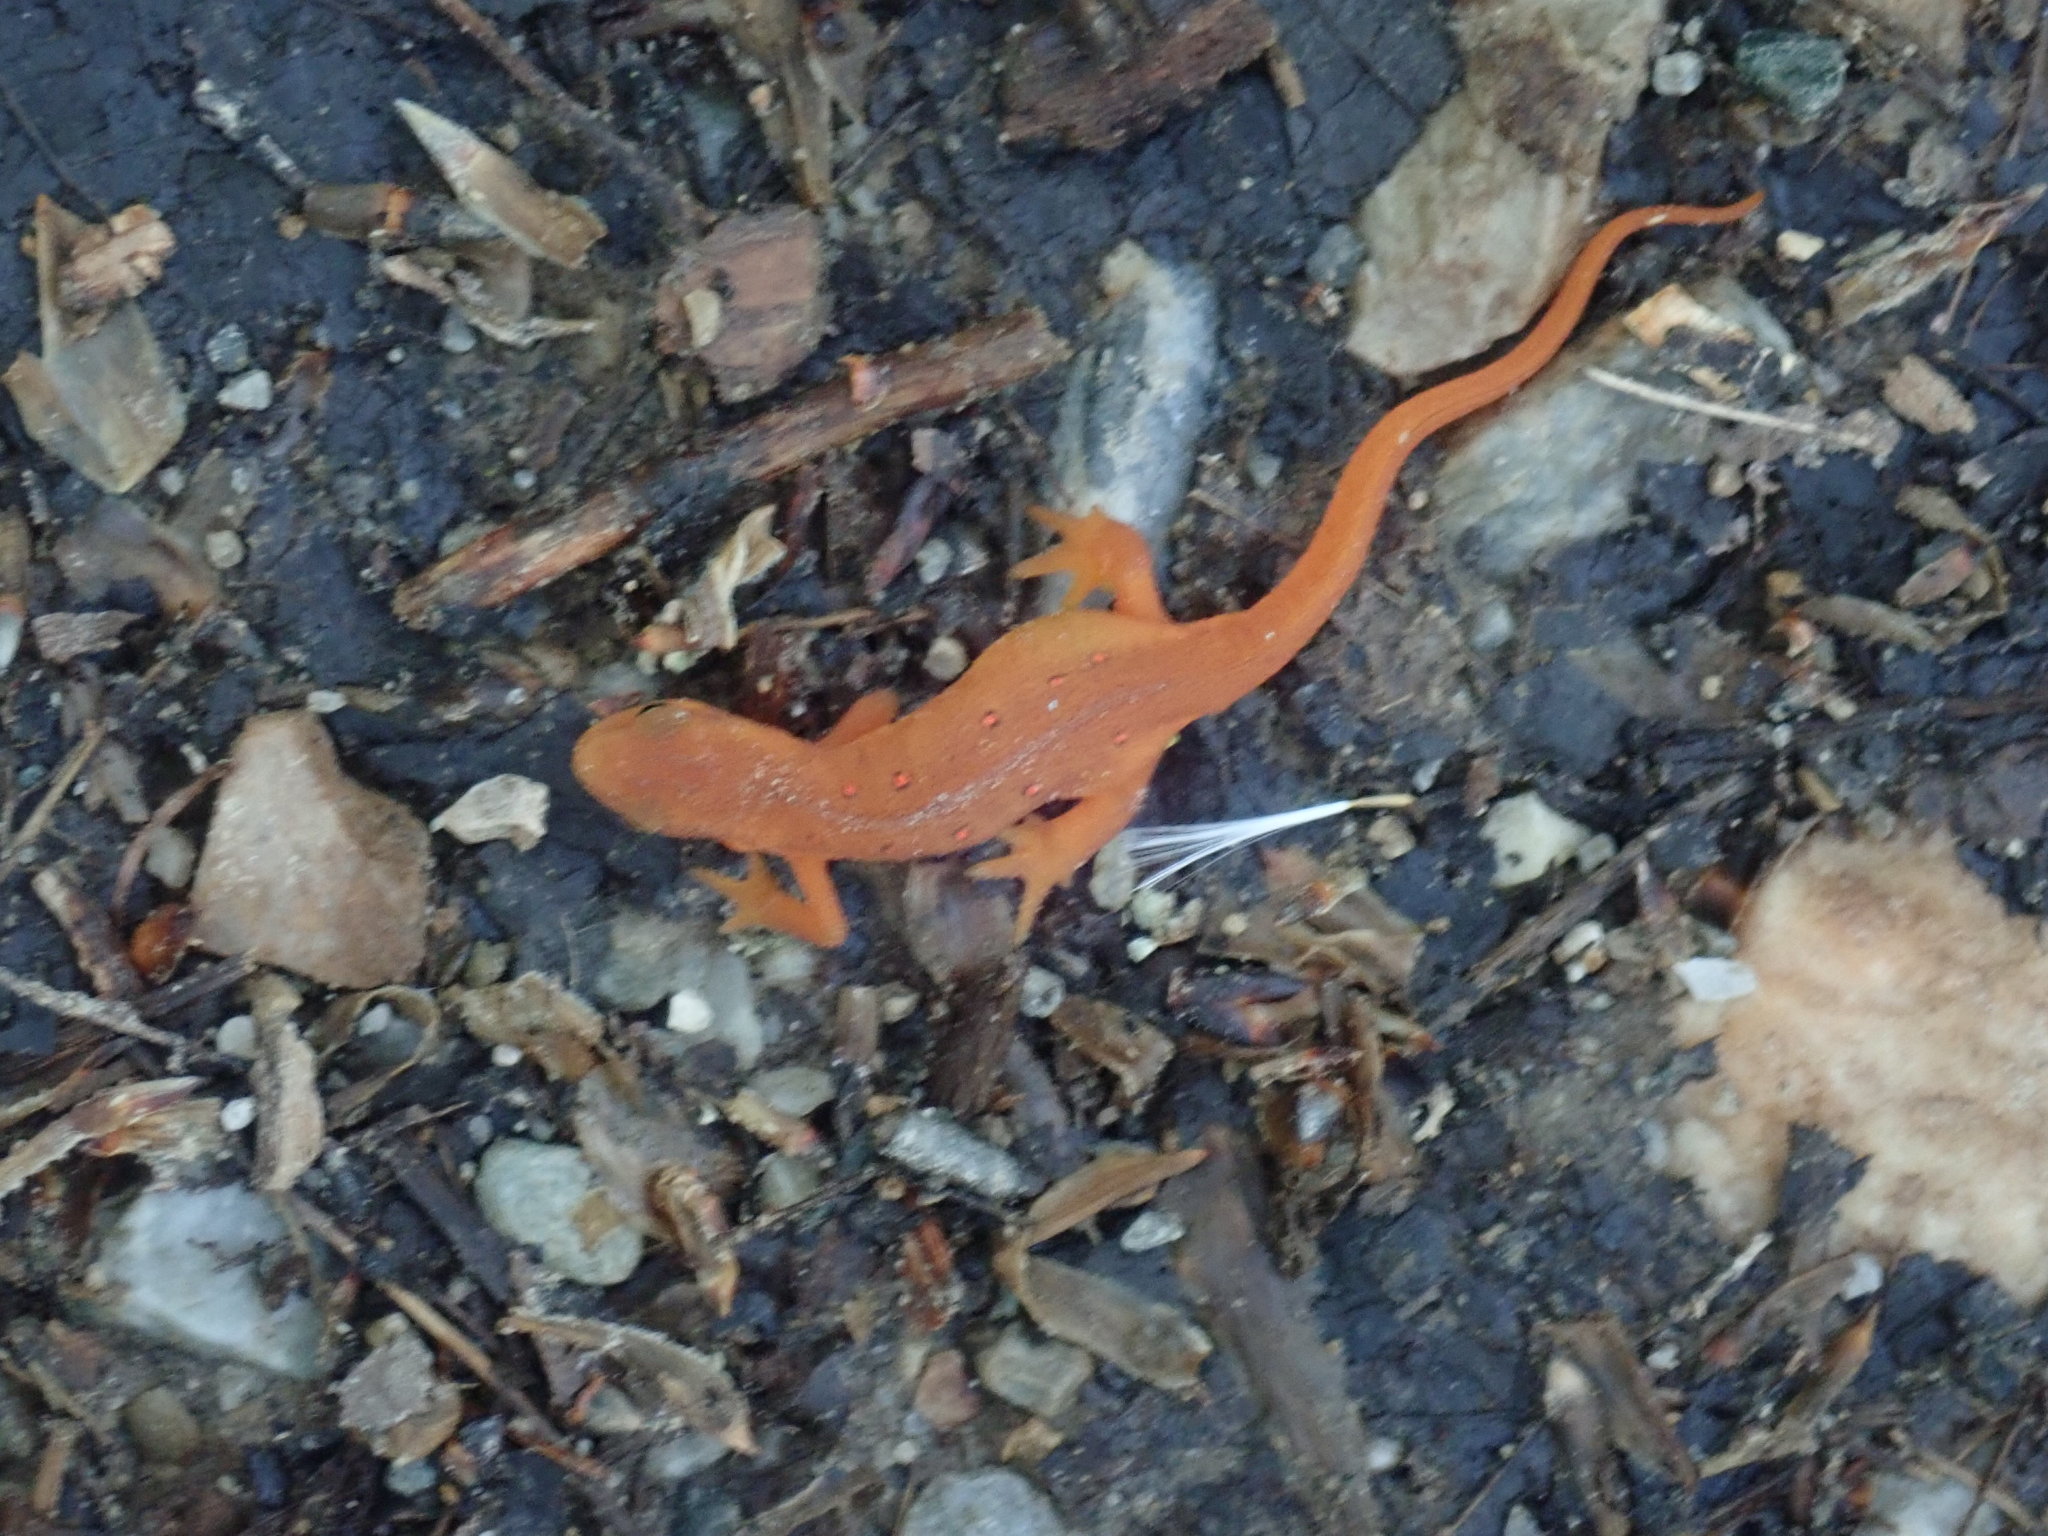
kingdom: Animalia
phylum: Chordata
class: Amphibia
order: Caudata
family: Salamandridae
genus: Notophthalmus
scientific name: Notophthalmus viridescens
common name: Eastern newt
